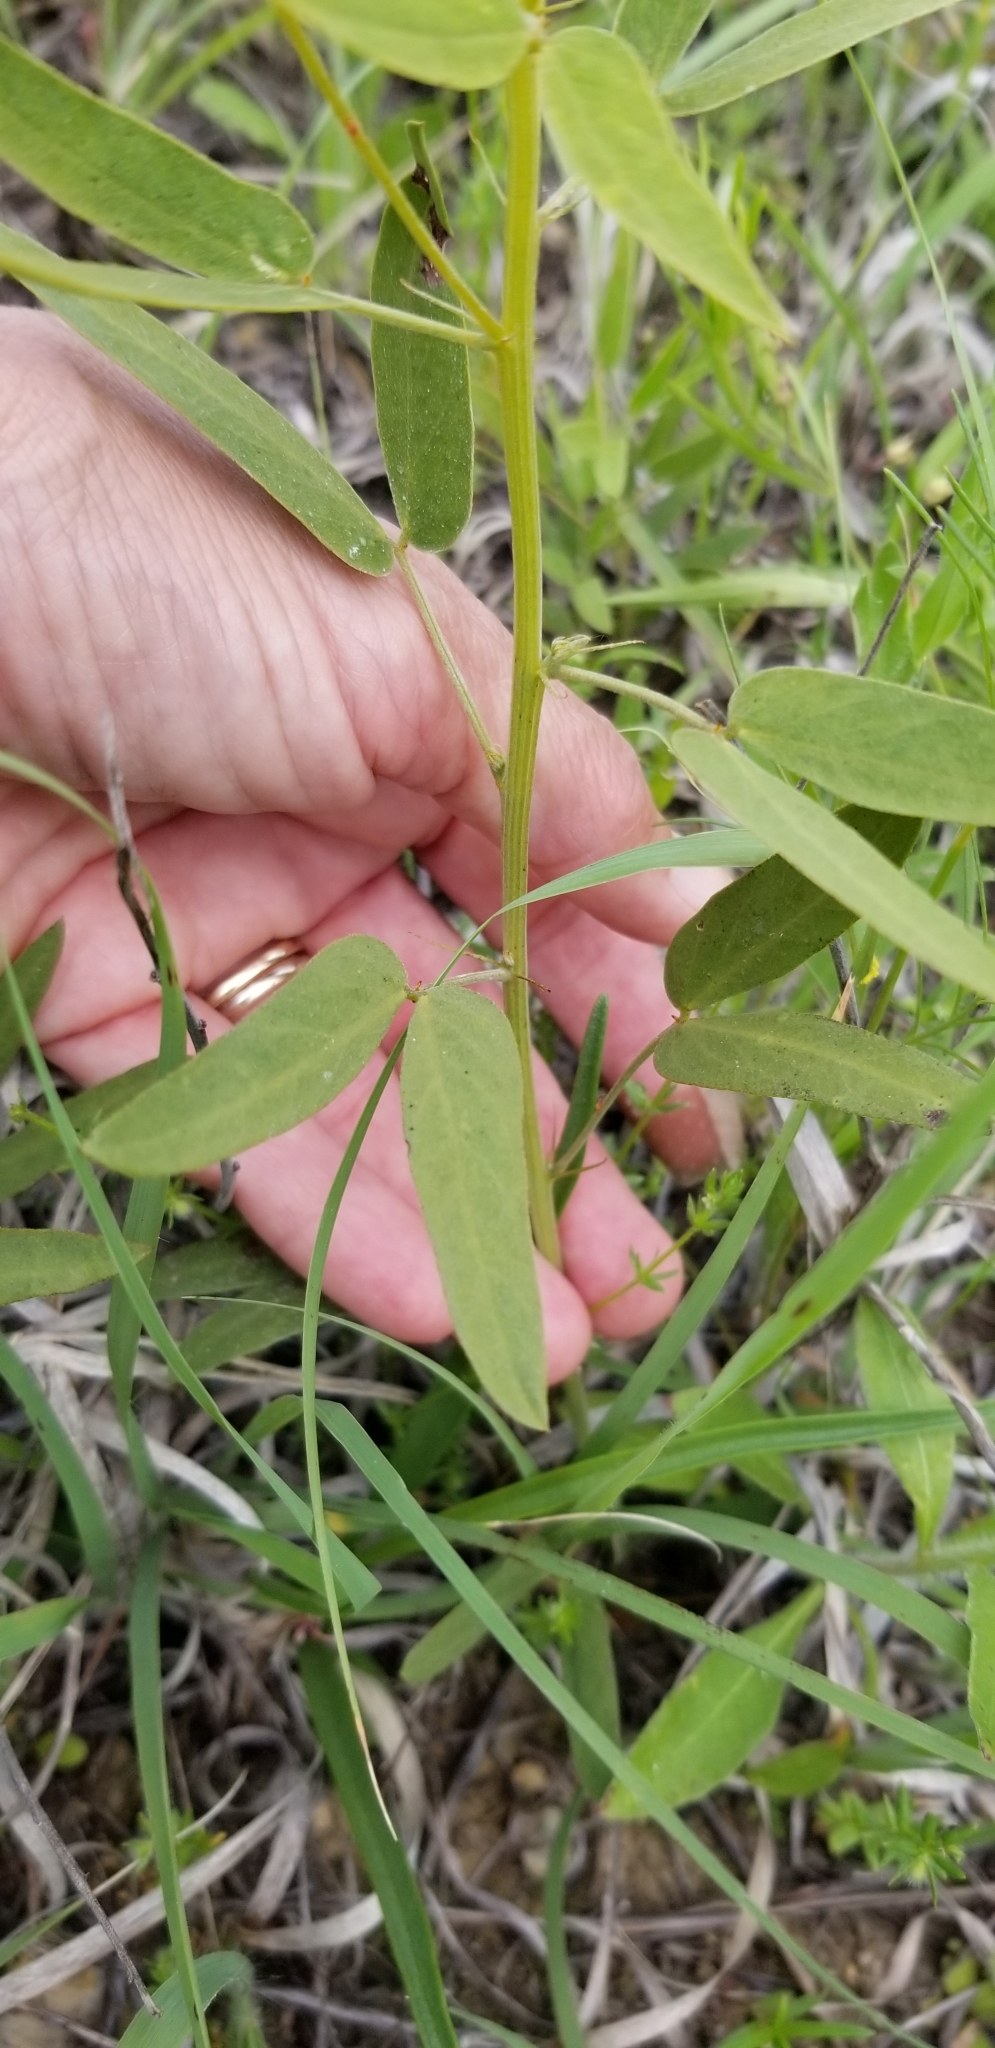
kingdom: Plantae
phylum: Tracheophyta
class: Magnoliopsida
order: Fabales
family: Fabaceae
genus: Senna
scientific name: Senna roemeriana
